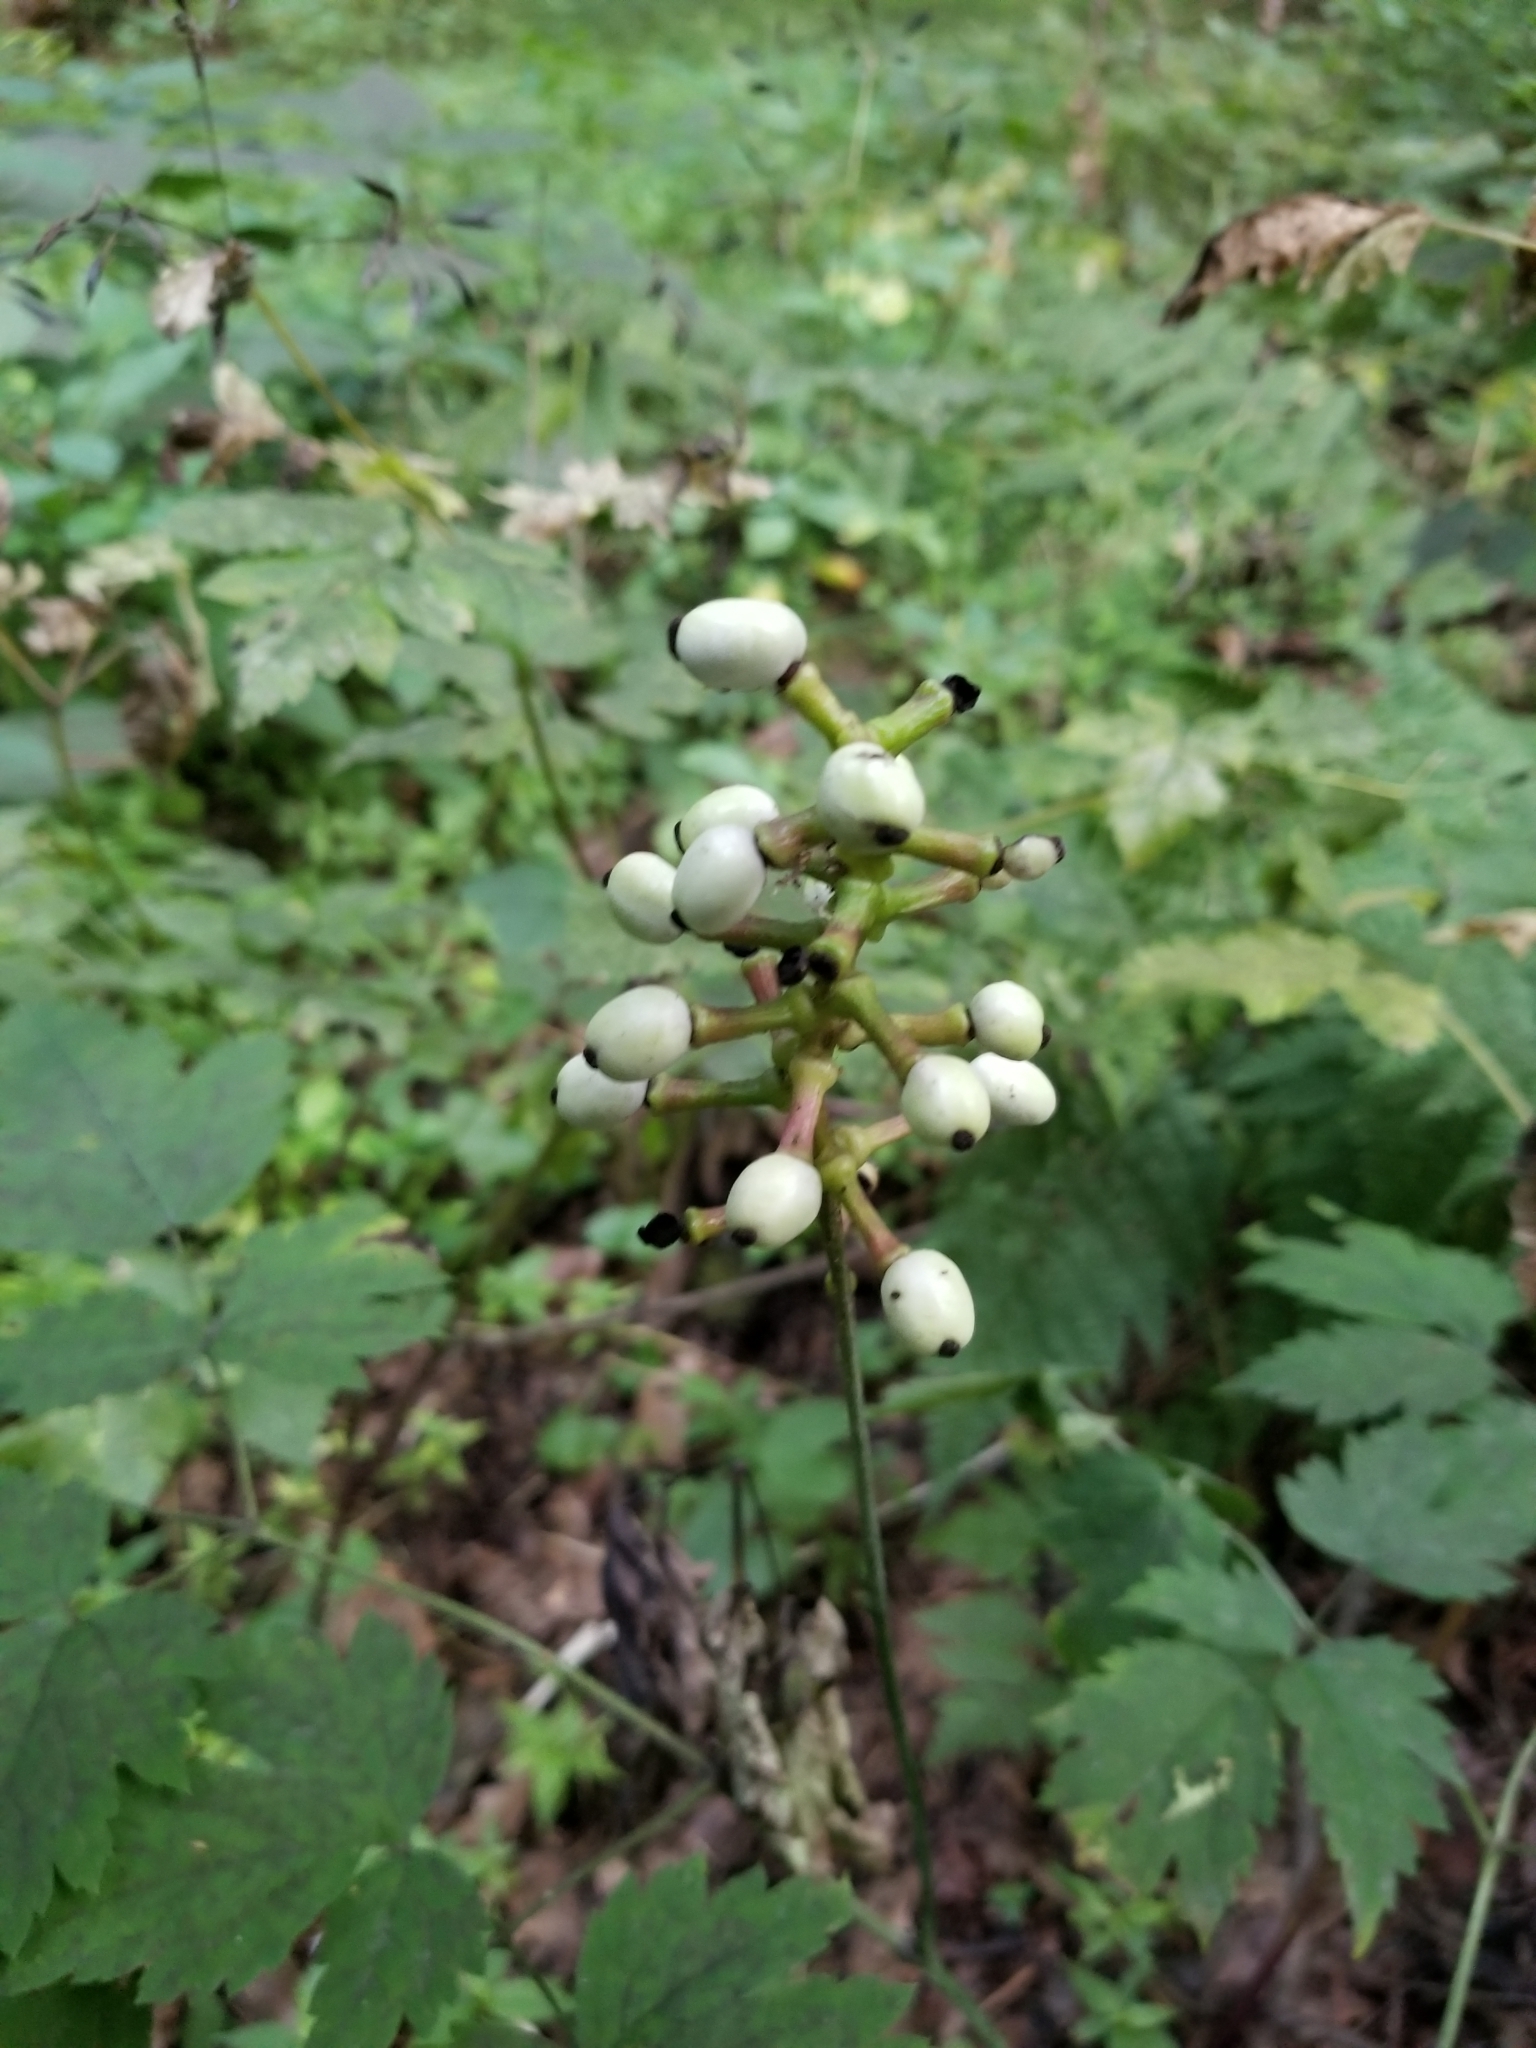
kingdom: Plantae
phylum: Tracheophyta
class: Magnoliopsida
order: Ranunculales
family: Ranunculaceae
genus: Actaea
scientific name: Actaea pachypoda
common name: Doll's-eyes
